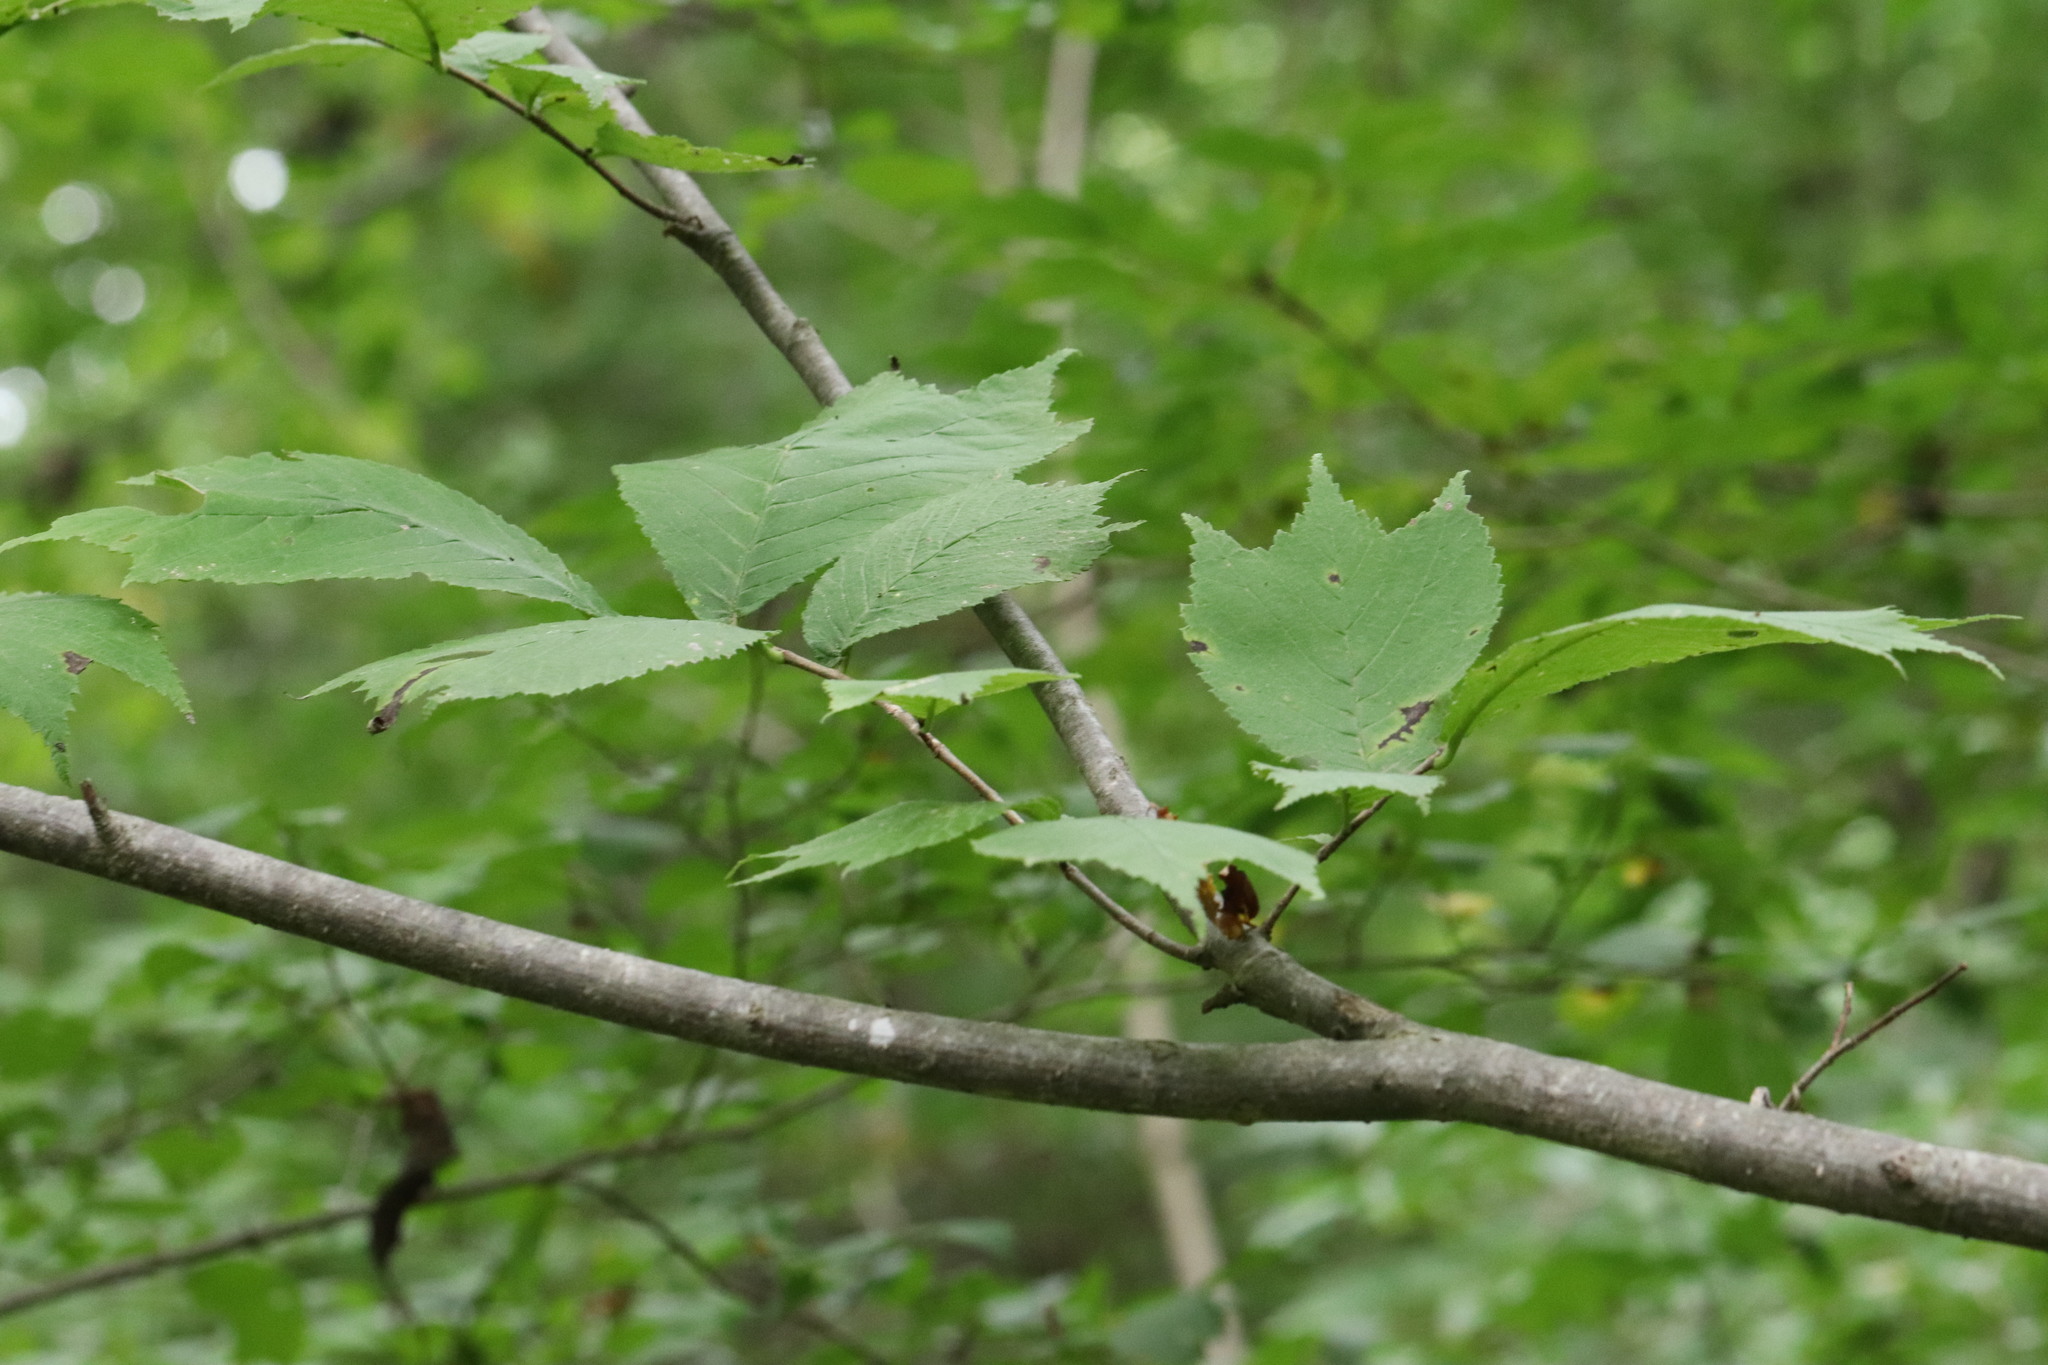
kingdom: Plantae
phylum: Tracheophyta
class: Magnoliopsida
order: Rosales
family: Ulmaceae
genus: Ulmus
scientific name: Ulmus laciniata
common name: Japanese elm
